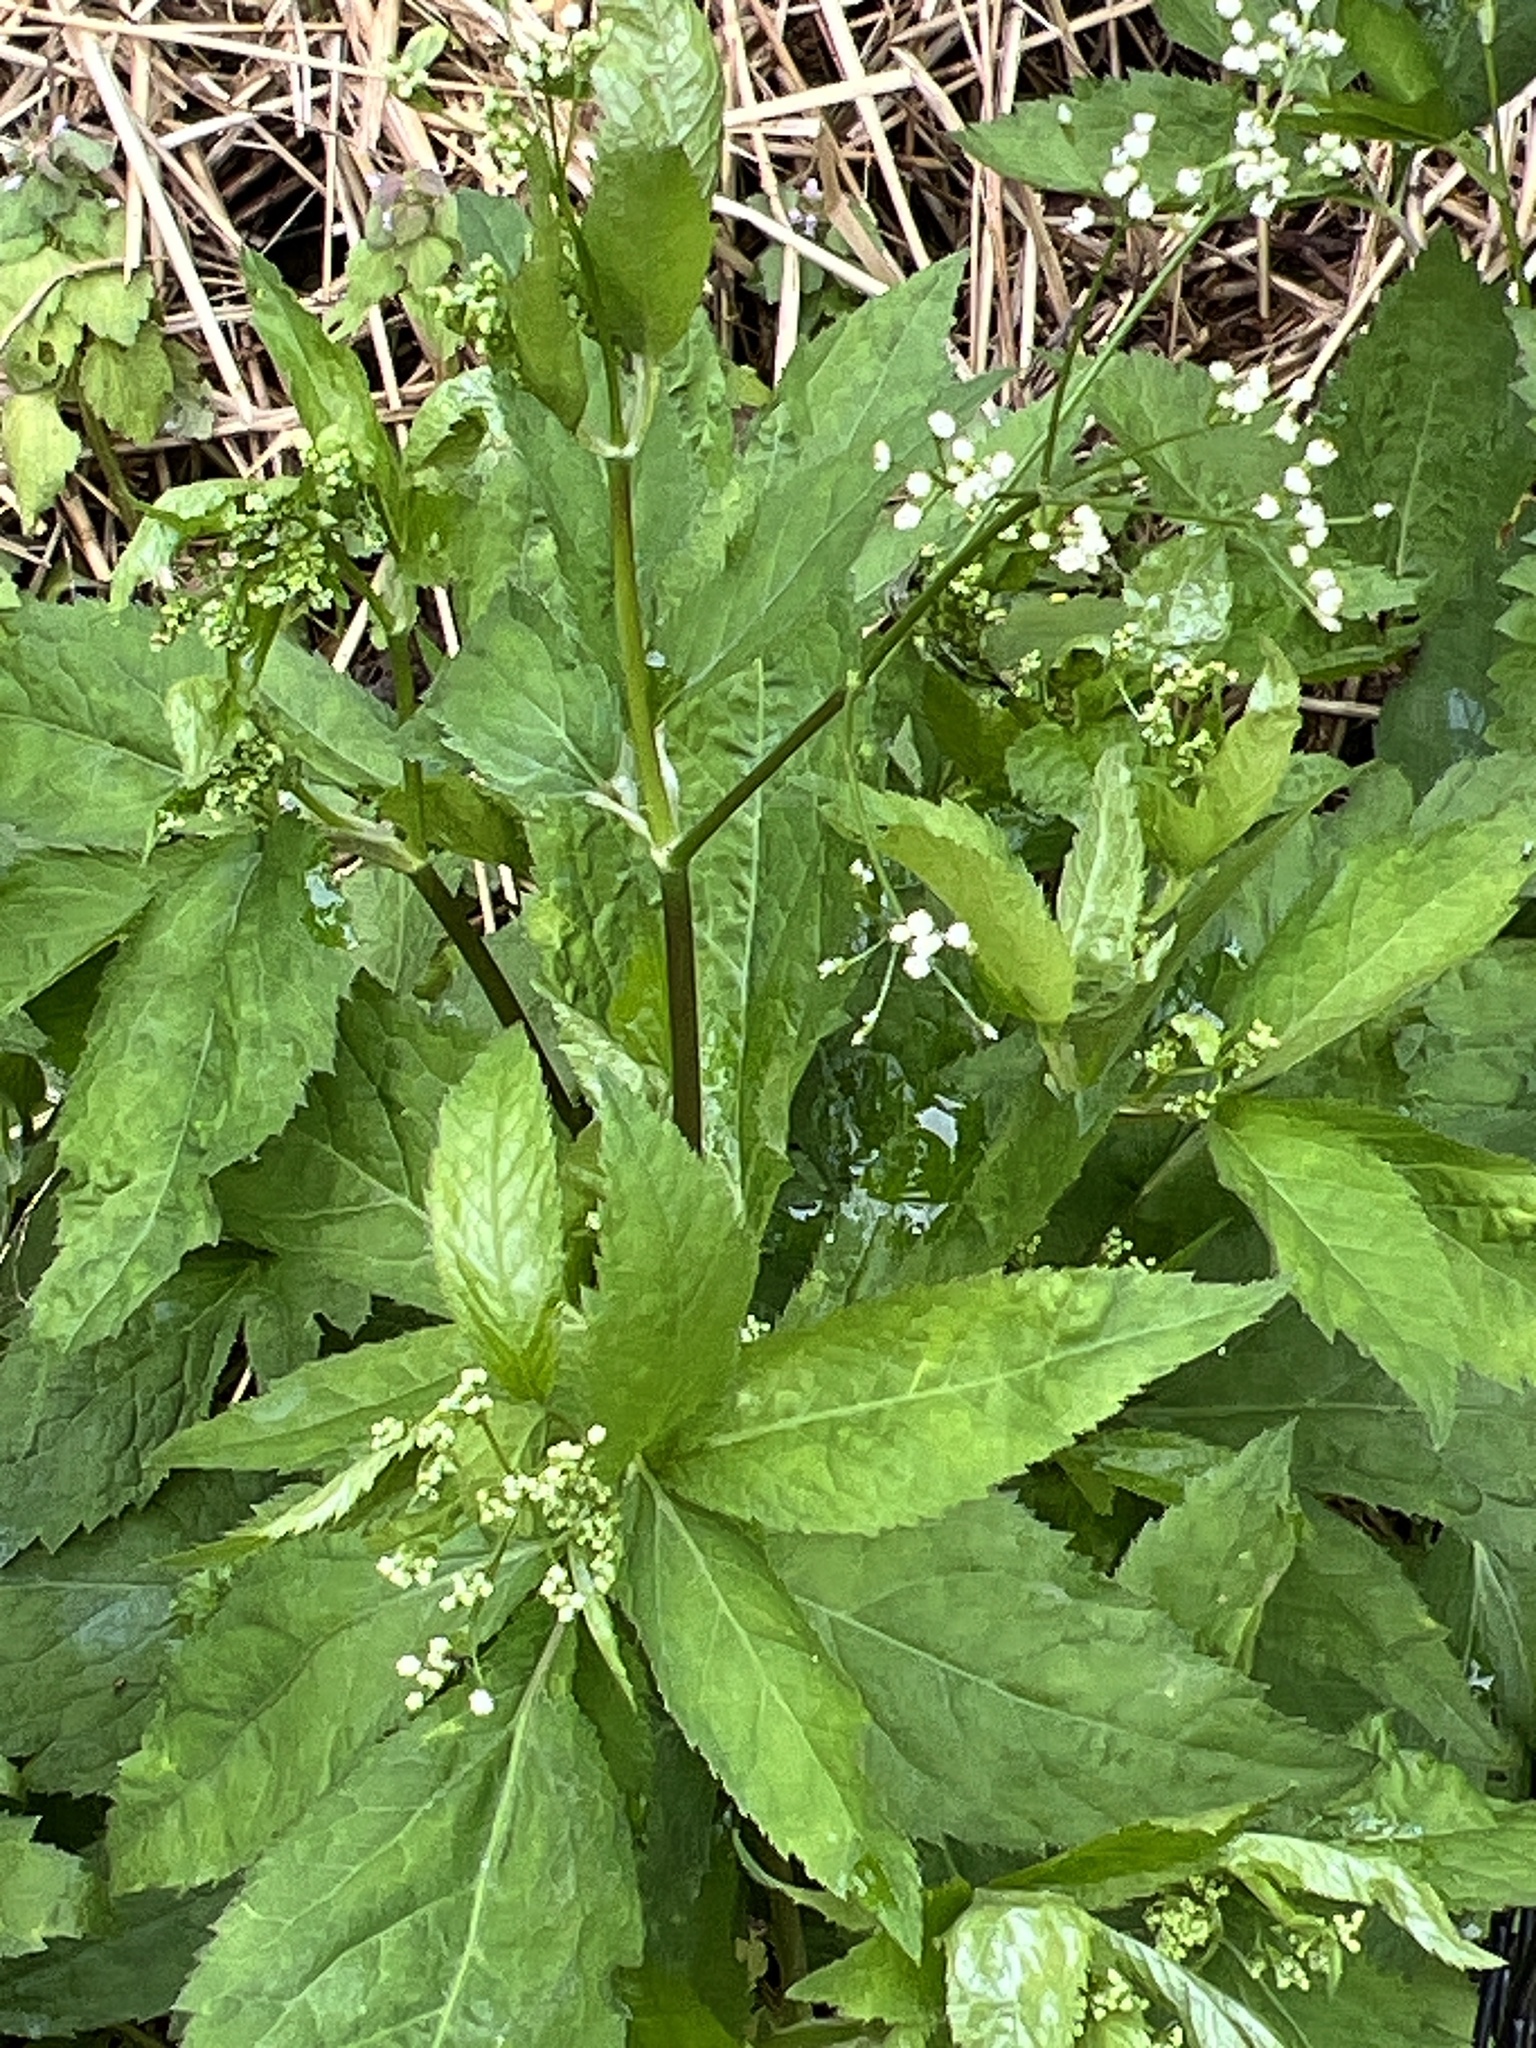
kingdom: Plantae
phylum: Tracheophyta
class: Magnoliopsida
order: Apiales
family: Apiaceae
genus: Cryptotaenia
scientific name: Cryptotaenia canadensis
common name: Honewort
